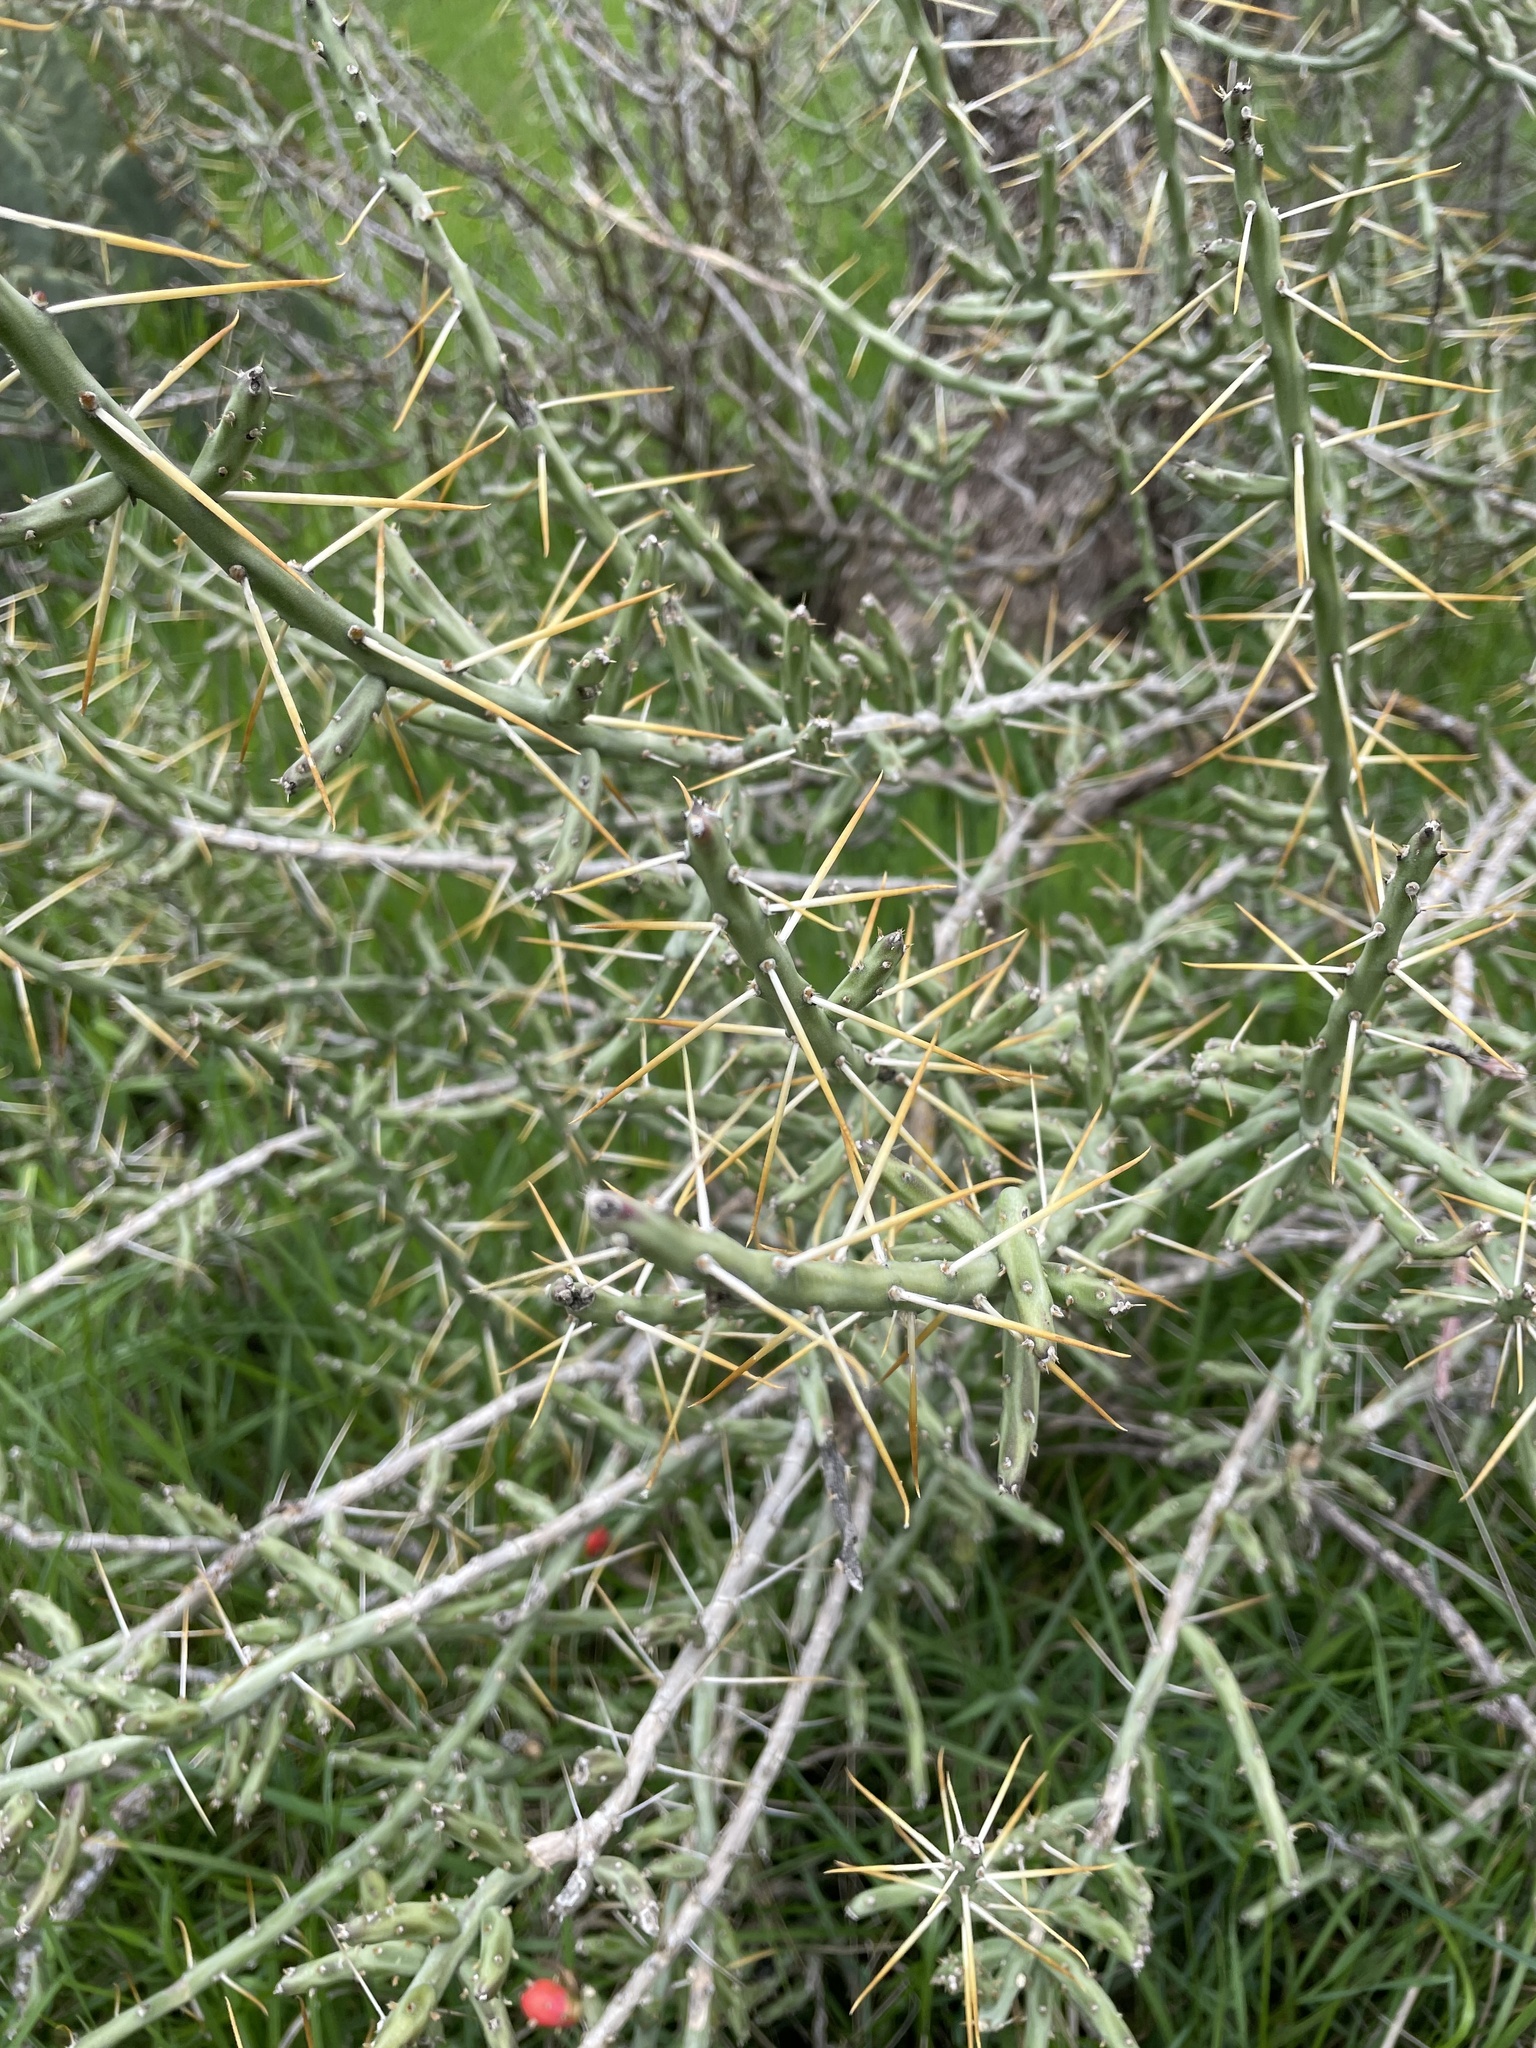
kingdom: Plantae
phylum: Tracheophyta
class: Magnoliopsida
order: Caryophyllales
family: Cactaceae
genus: Cylindropuntia
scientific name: Cylindropuntia leptocaulis
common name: Christmas cactus
